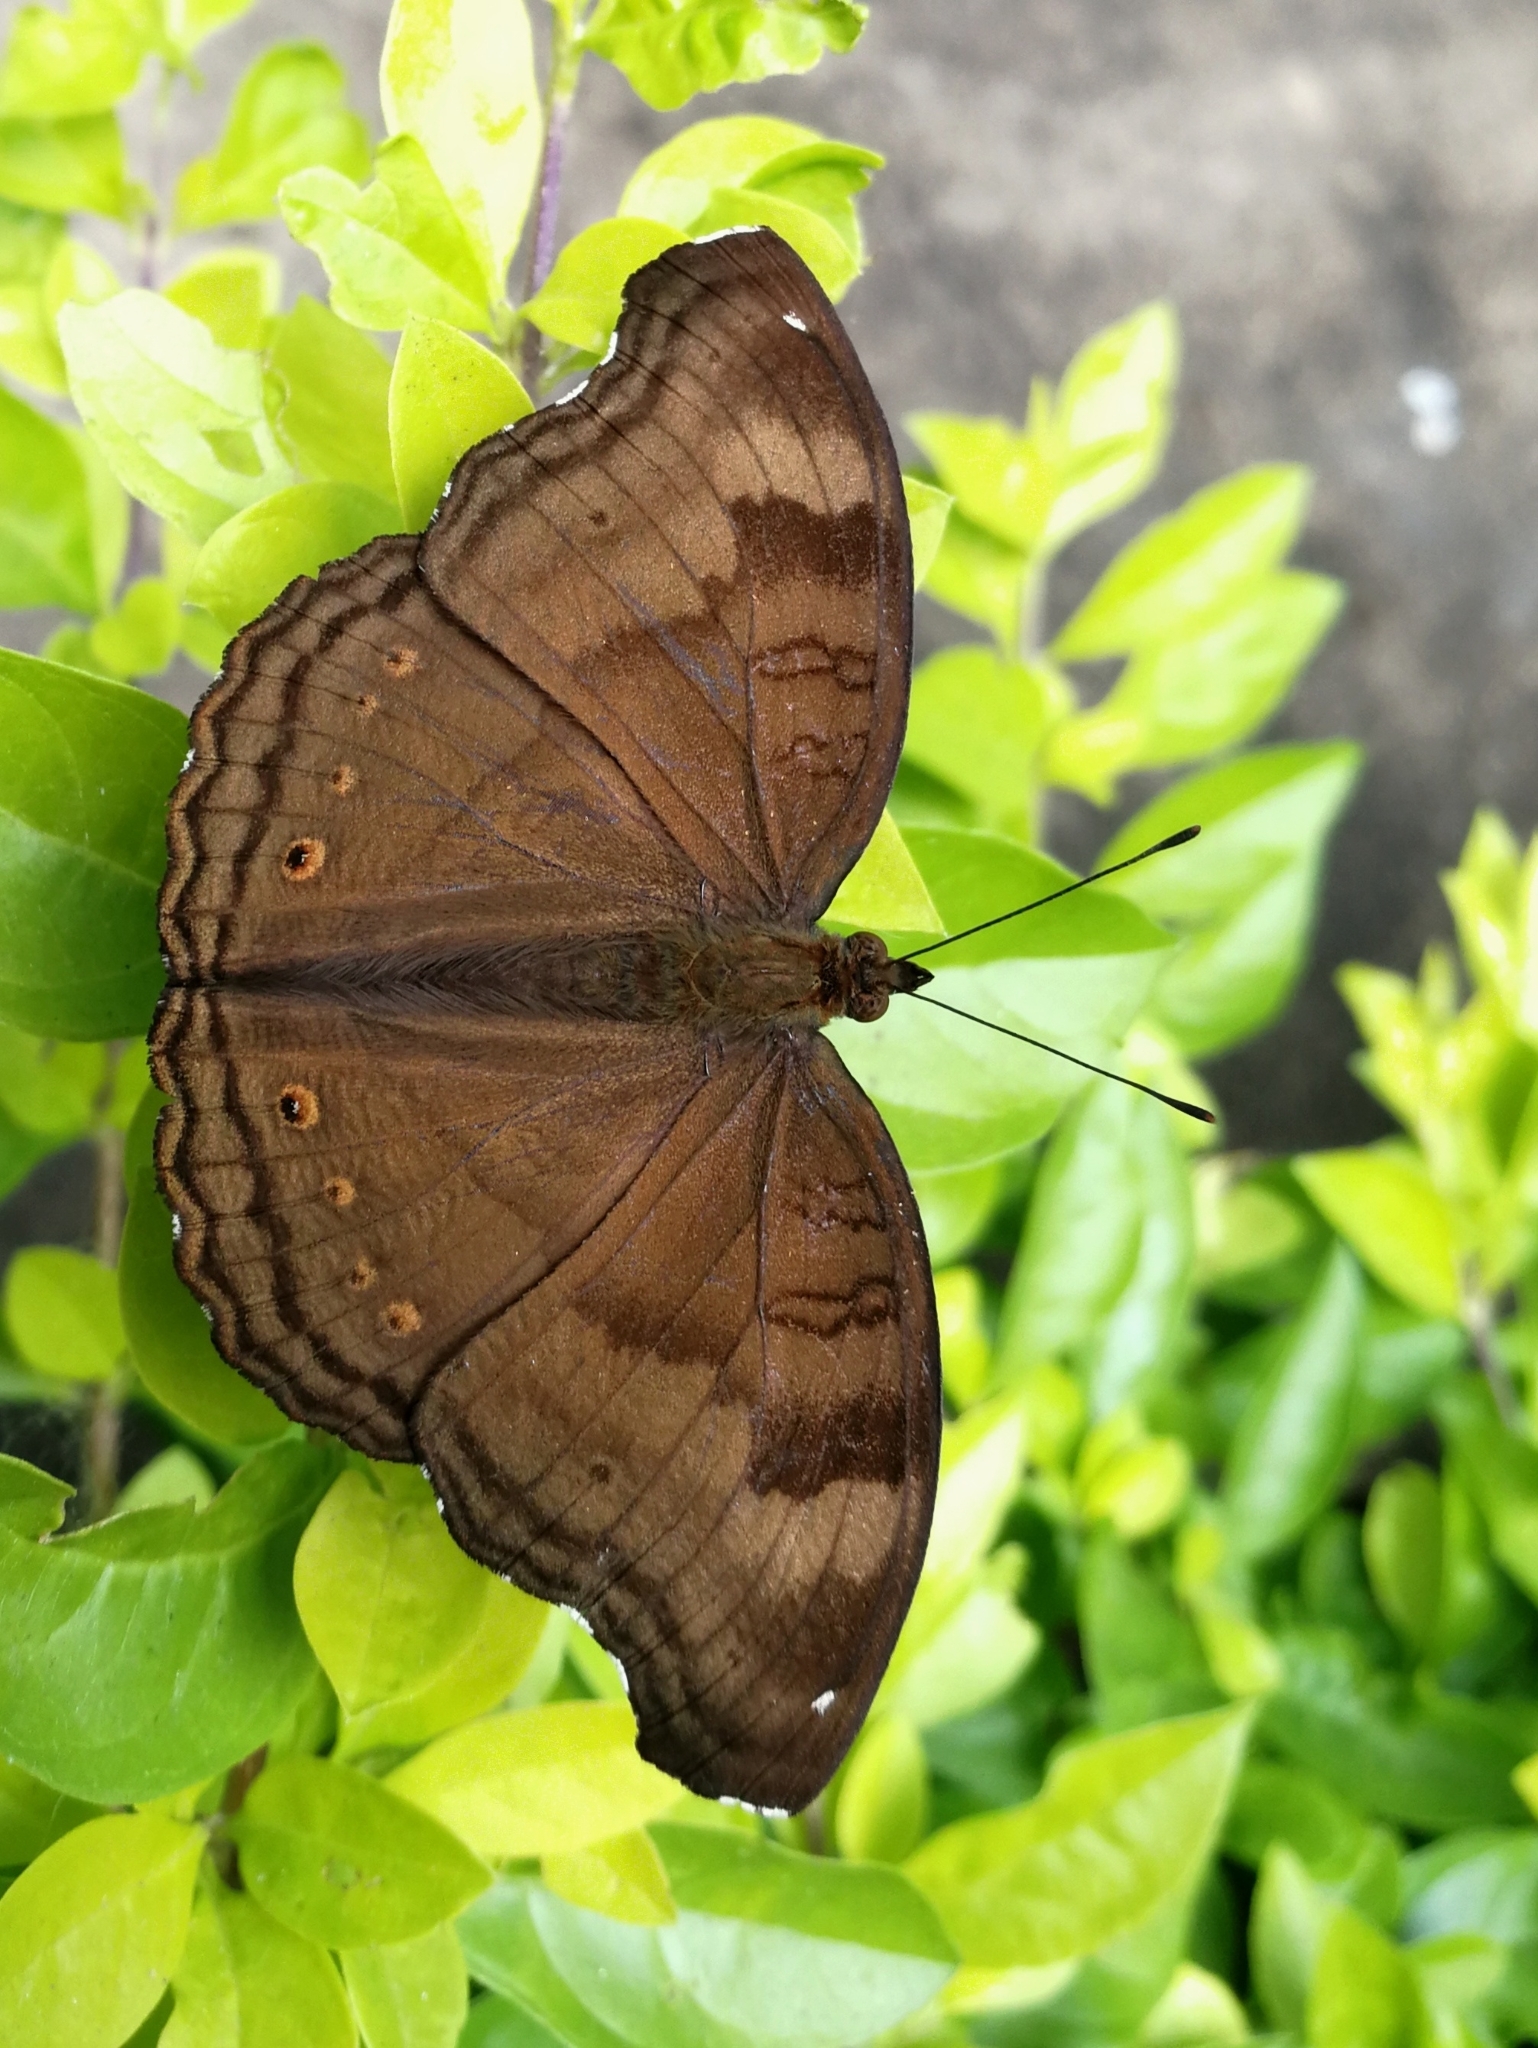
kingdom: Animalia
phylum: Arthropoda
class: Insecta
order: Lepidoptera
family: Nymphalidae
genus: Junonia
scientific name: Junonia iphita
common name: Chocolate pansy
